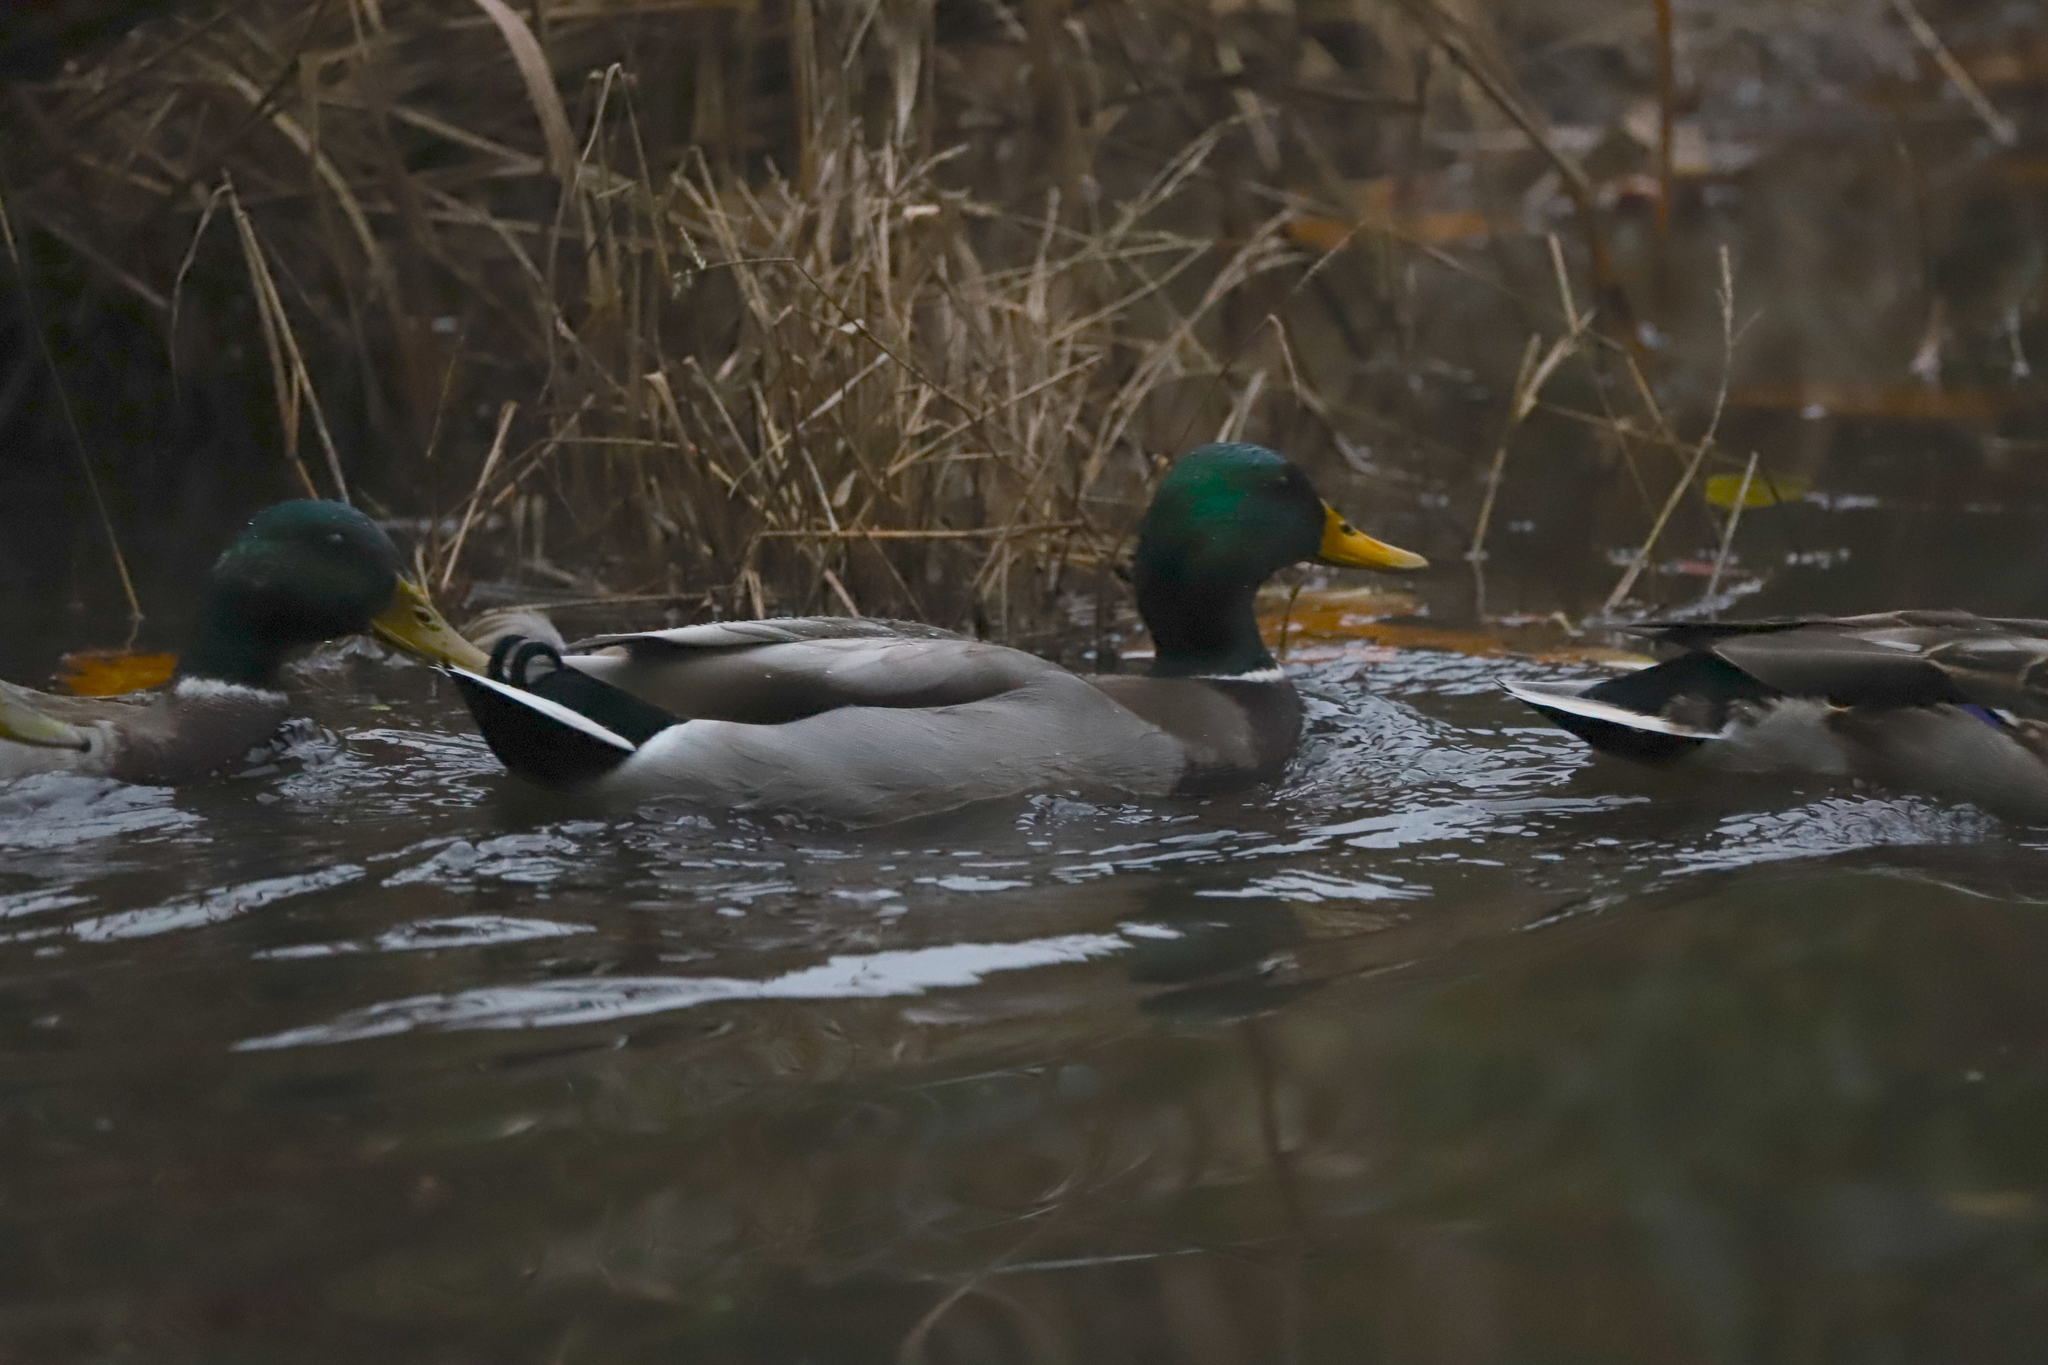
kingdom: Animalia
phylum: Chordata
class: Aves
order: Anseriformes
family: Anatidae
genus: Anas
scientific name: Anas platyrhynchos
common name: Mallard
